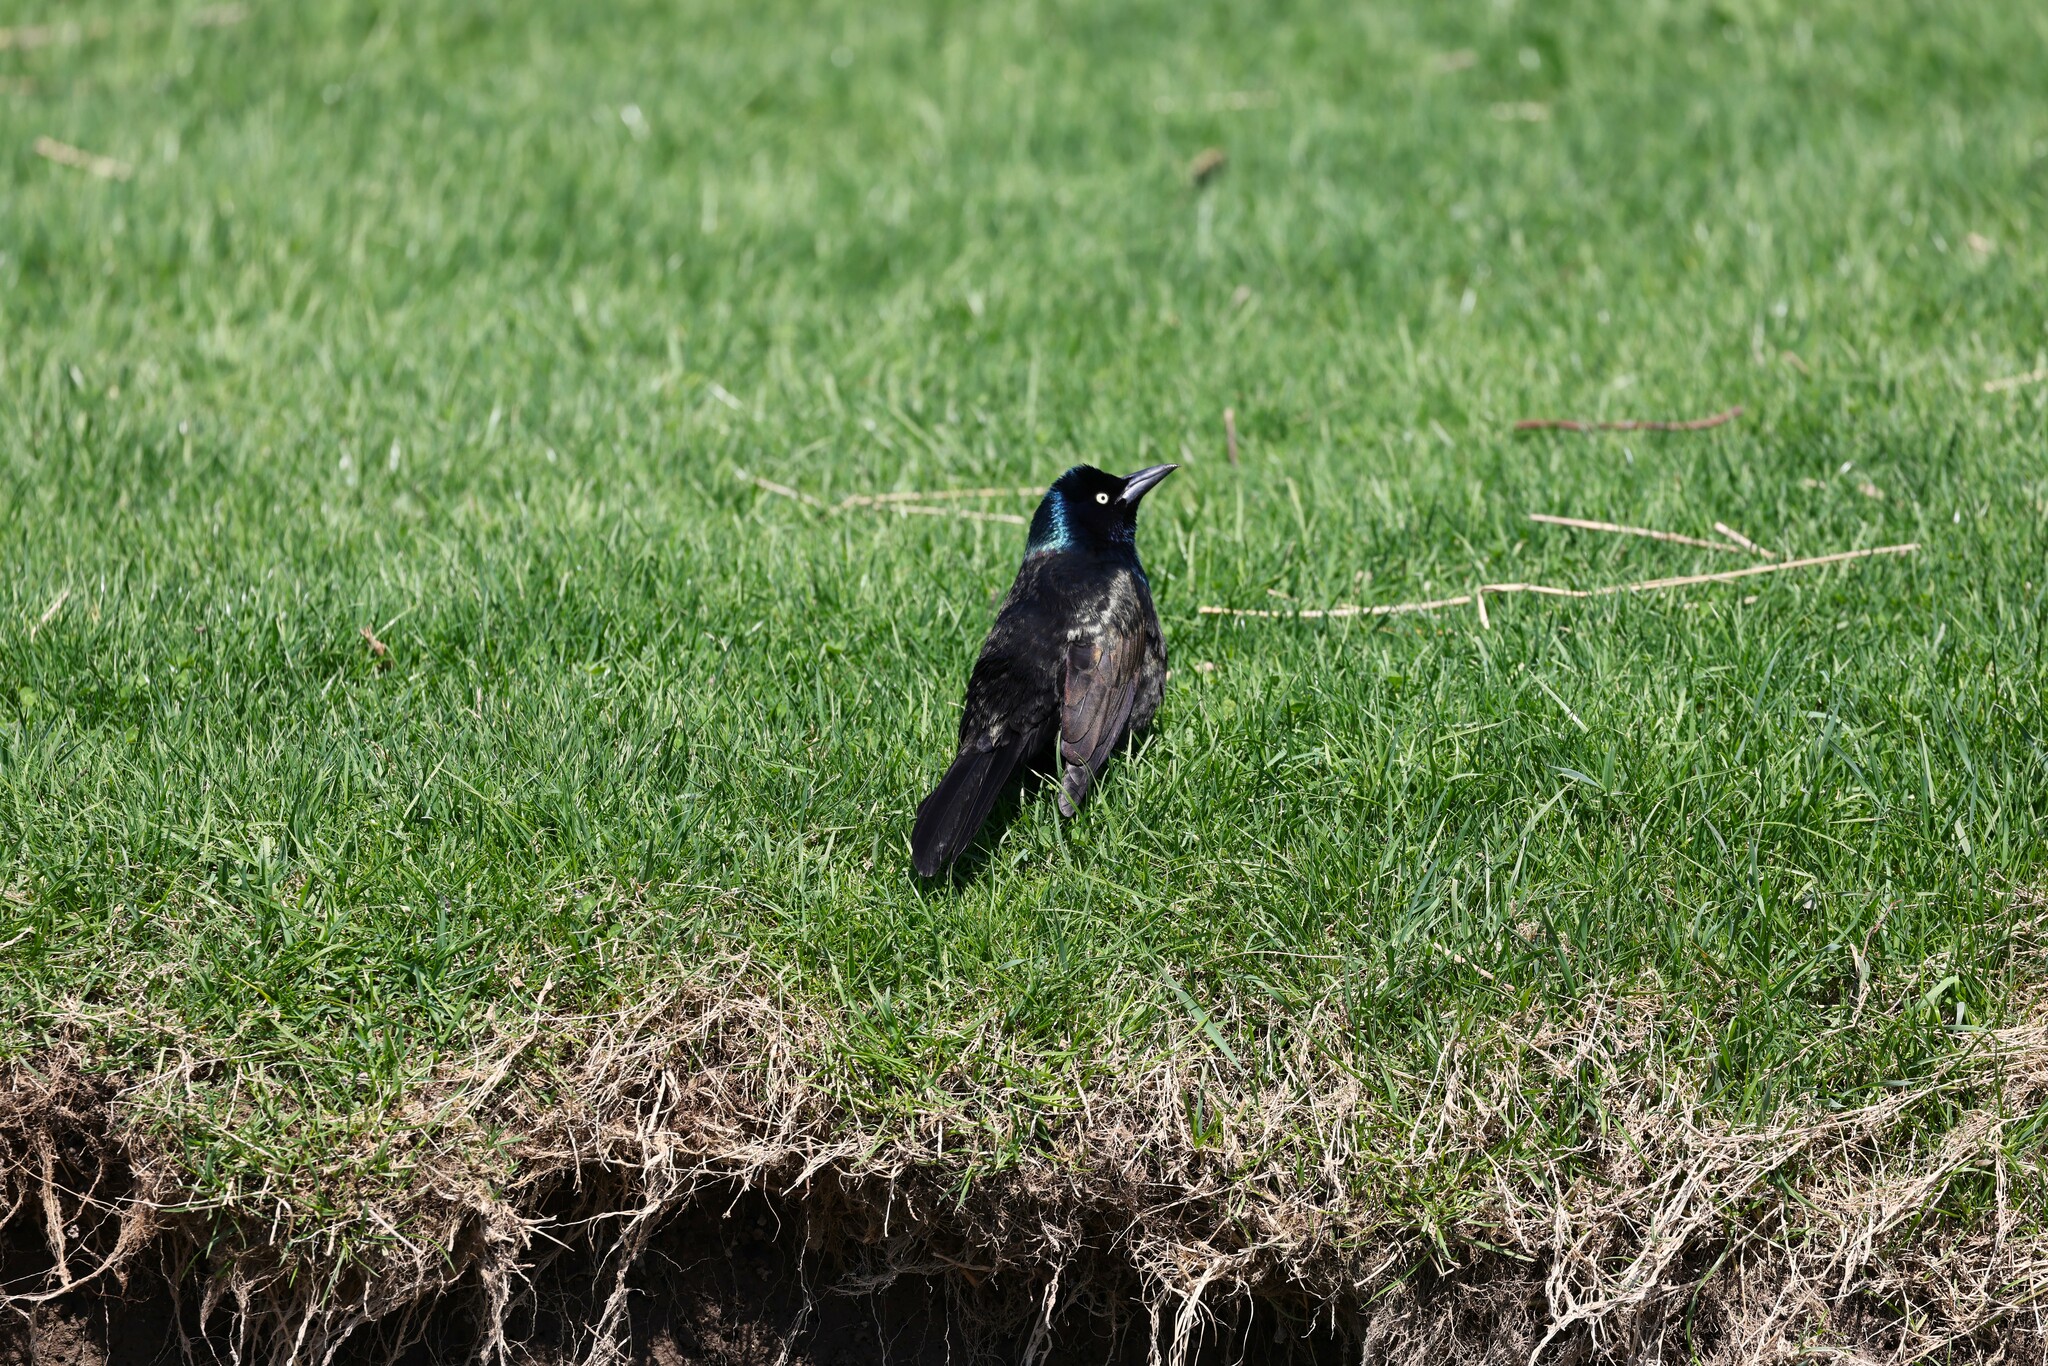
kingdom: Animalia
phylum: Chordata
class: Aves
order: Passeriformes
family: Icteridae
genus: Quiscalus
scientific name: Quiscalus quiscula
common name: Common grackle
